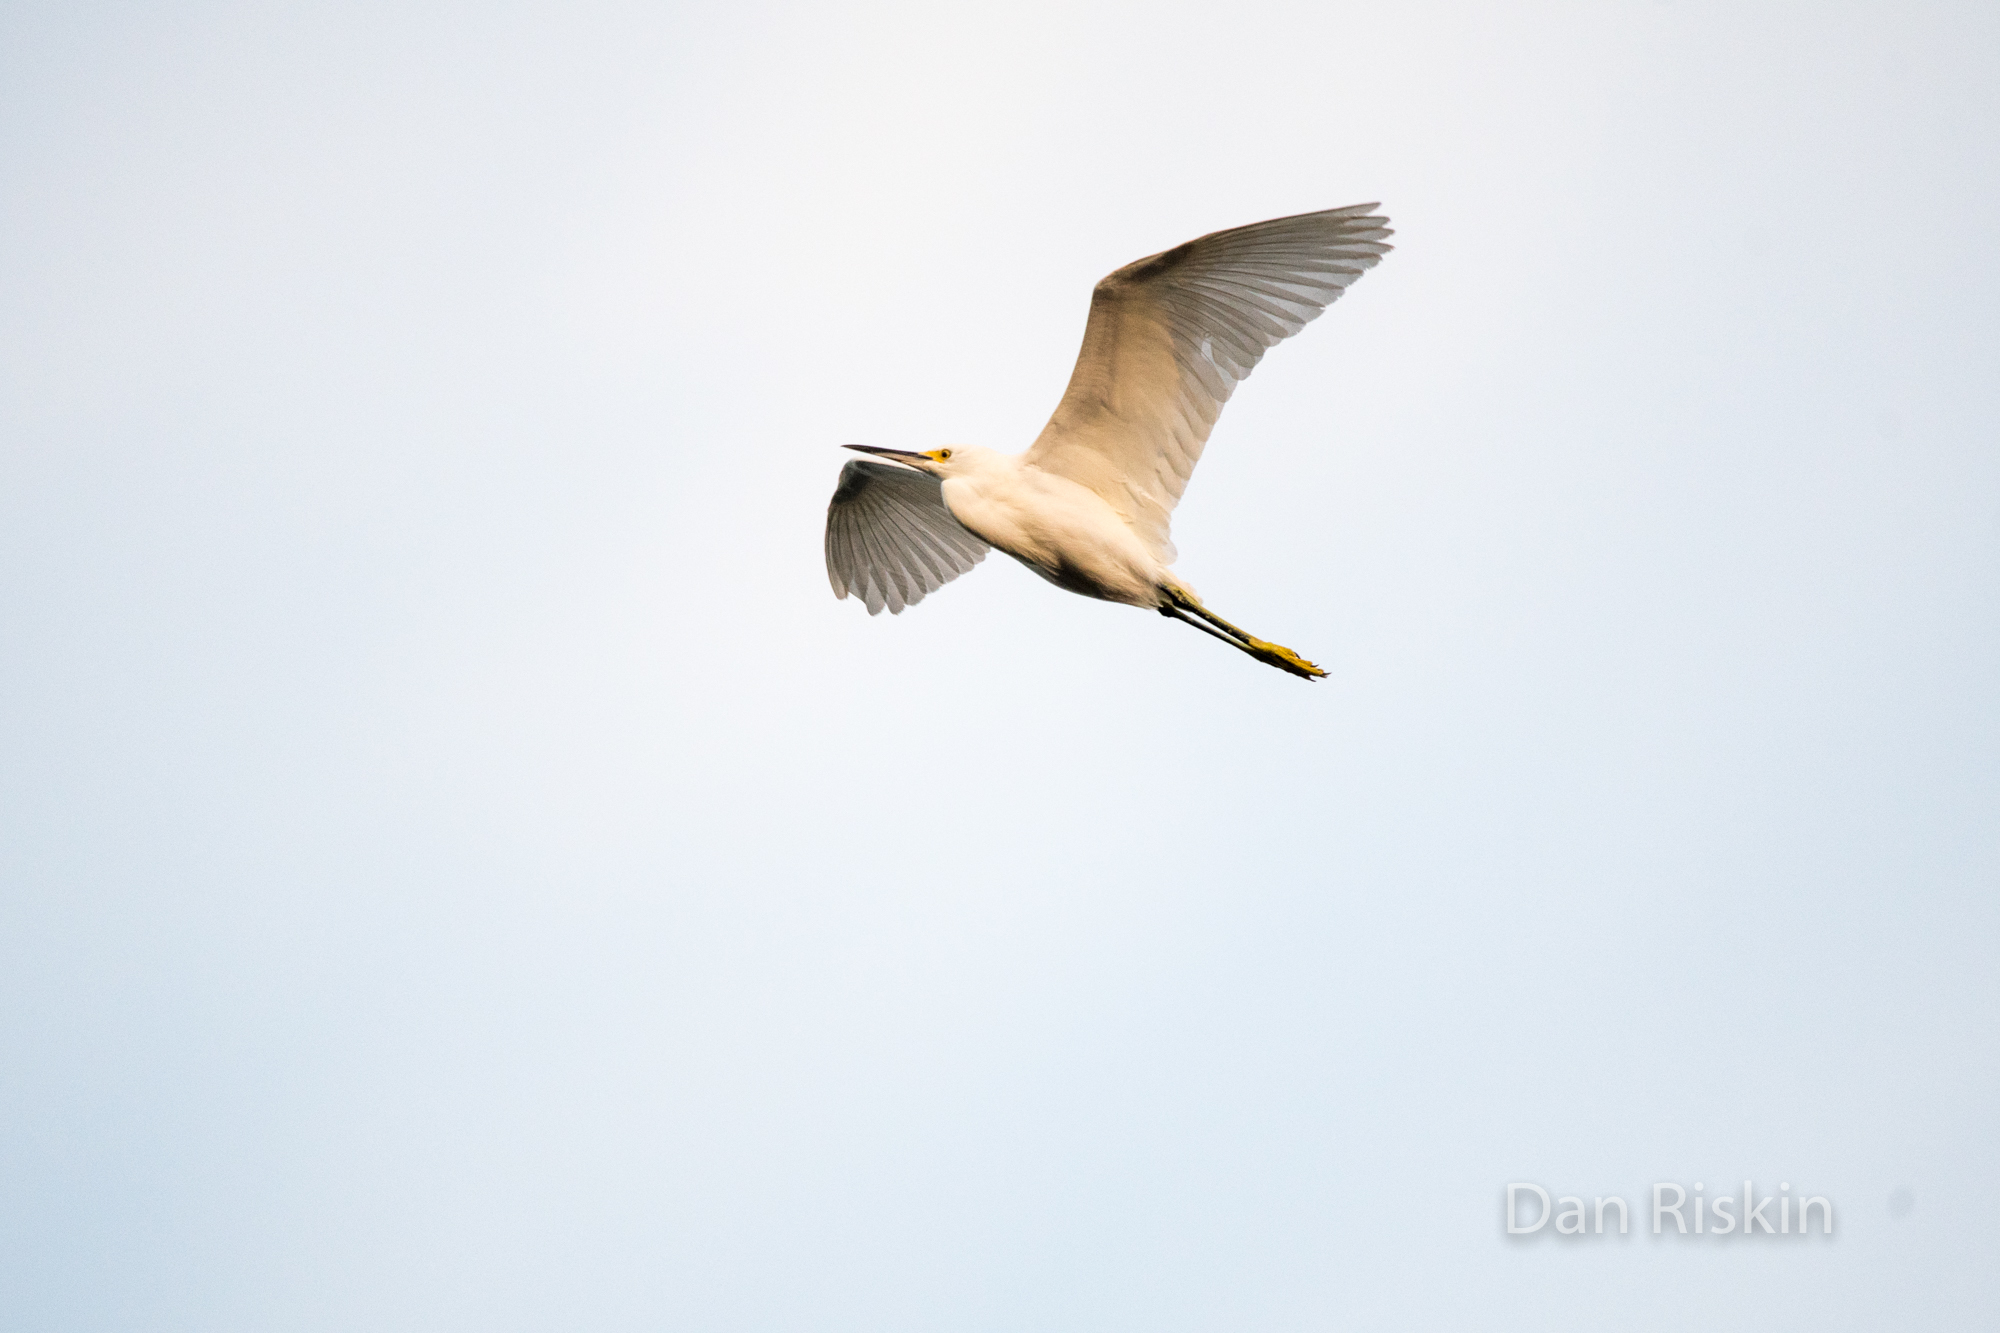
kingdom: Animalia
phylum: Chordata
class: Aves
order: Pelecaniformes
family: Ardeidae
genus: Egretta
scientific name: Egretta thula
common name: Snowy egret
